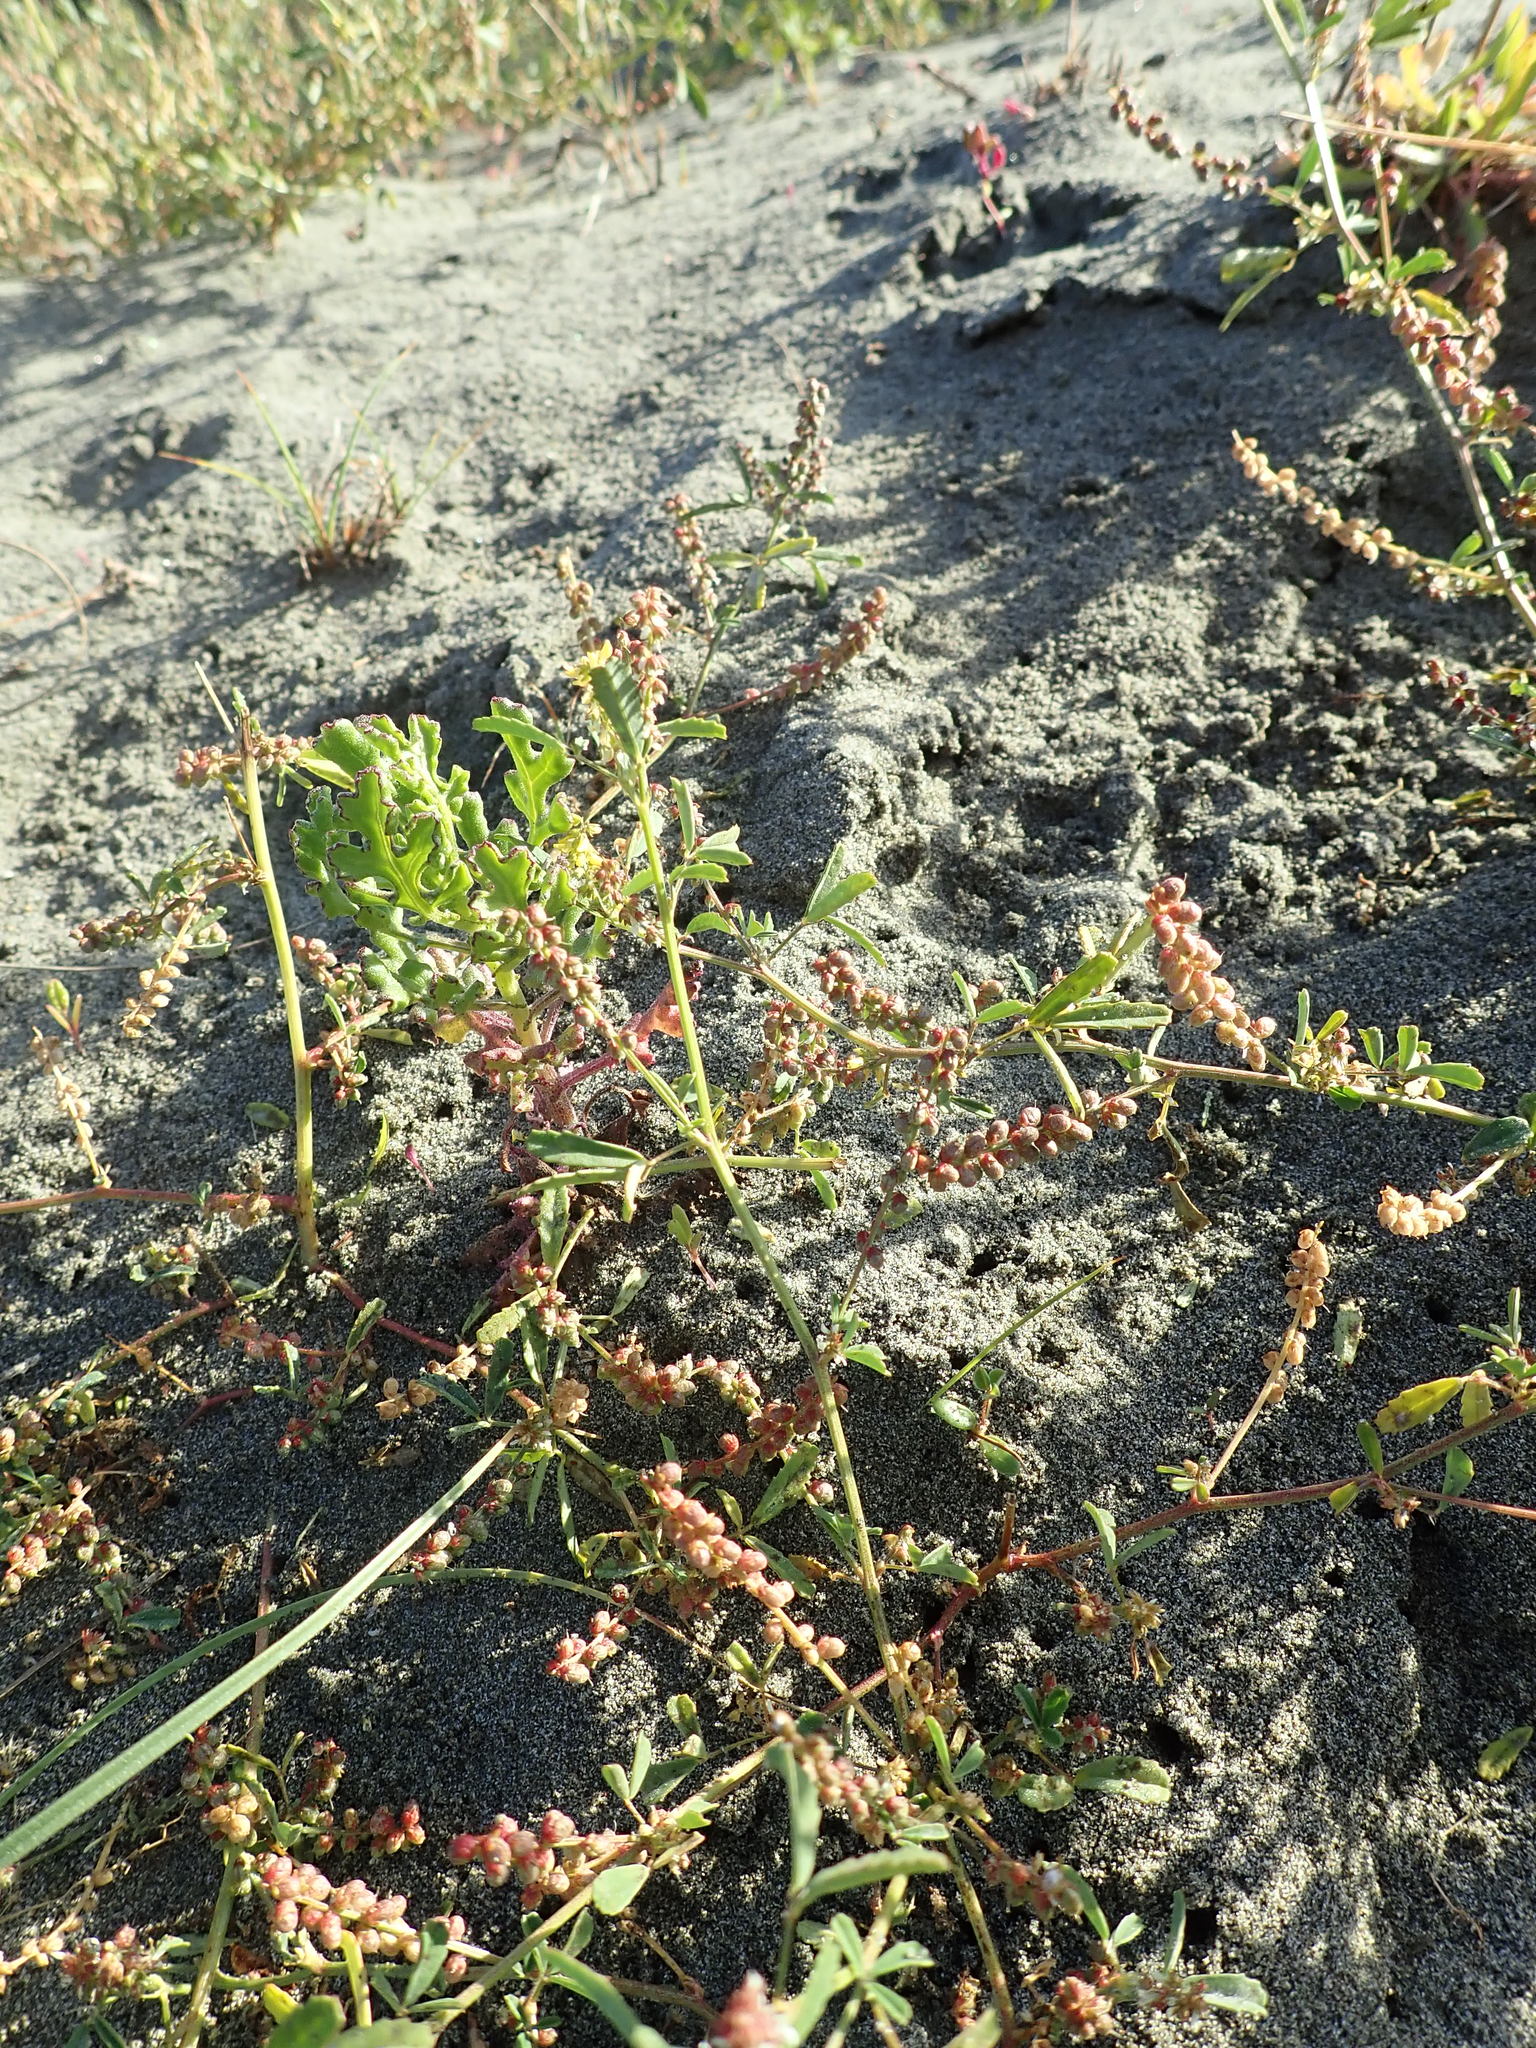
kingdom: Plantae
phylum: Tracheophyta
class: Magnoliopsida
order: Fabales
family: Fabaceae
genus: Melilotus
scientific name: Melilotus indicus
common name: Small melilot
